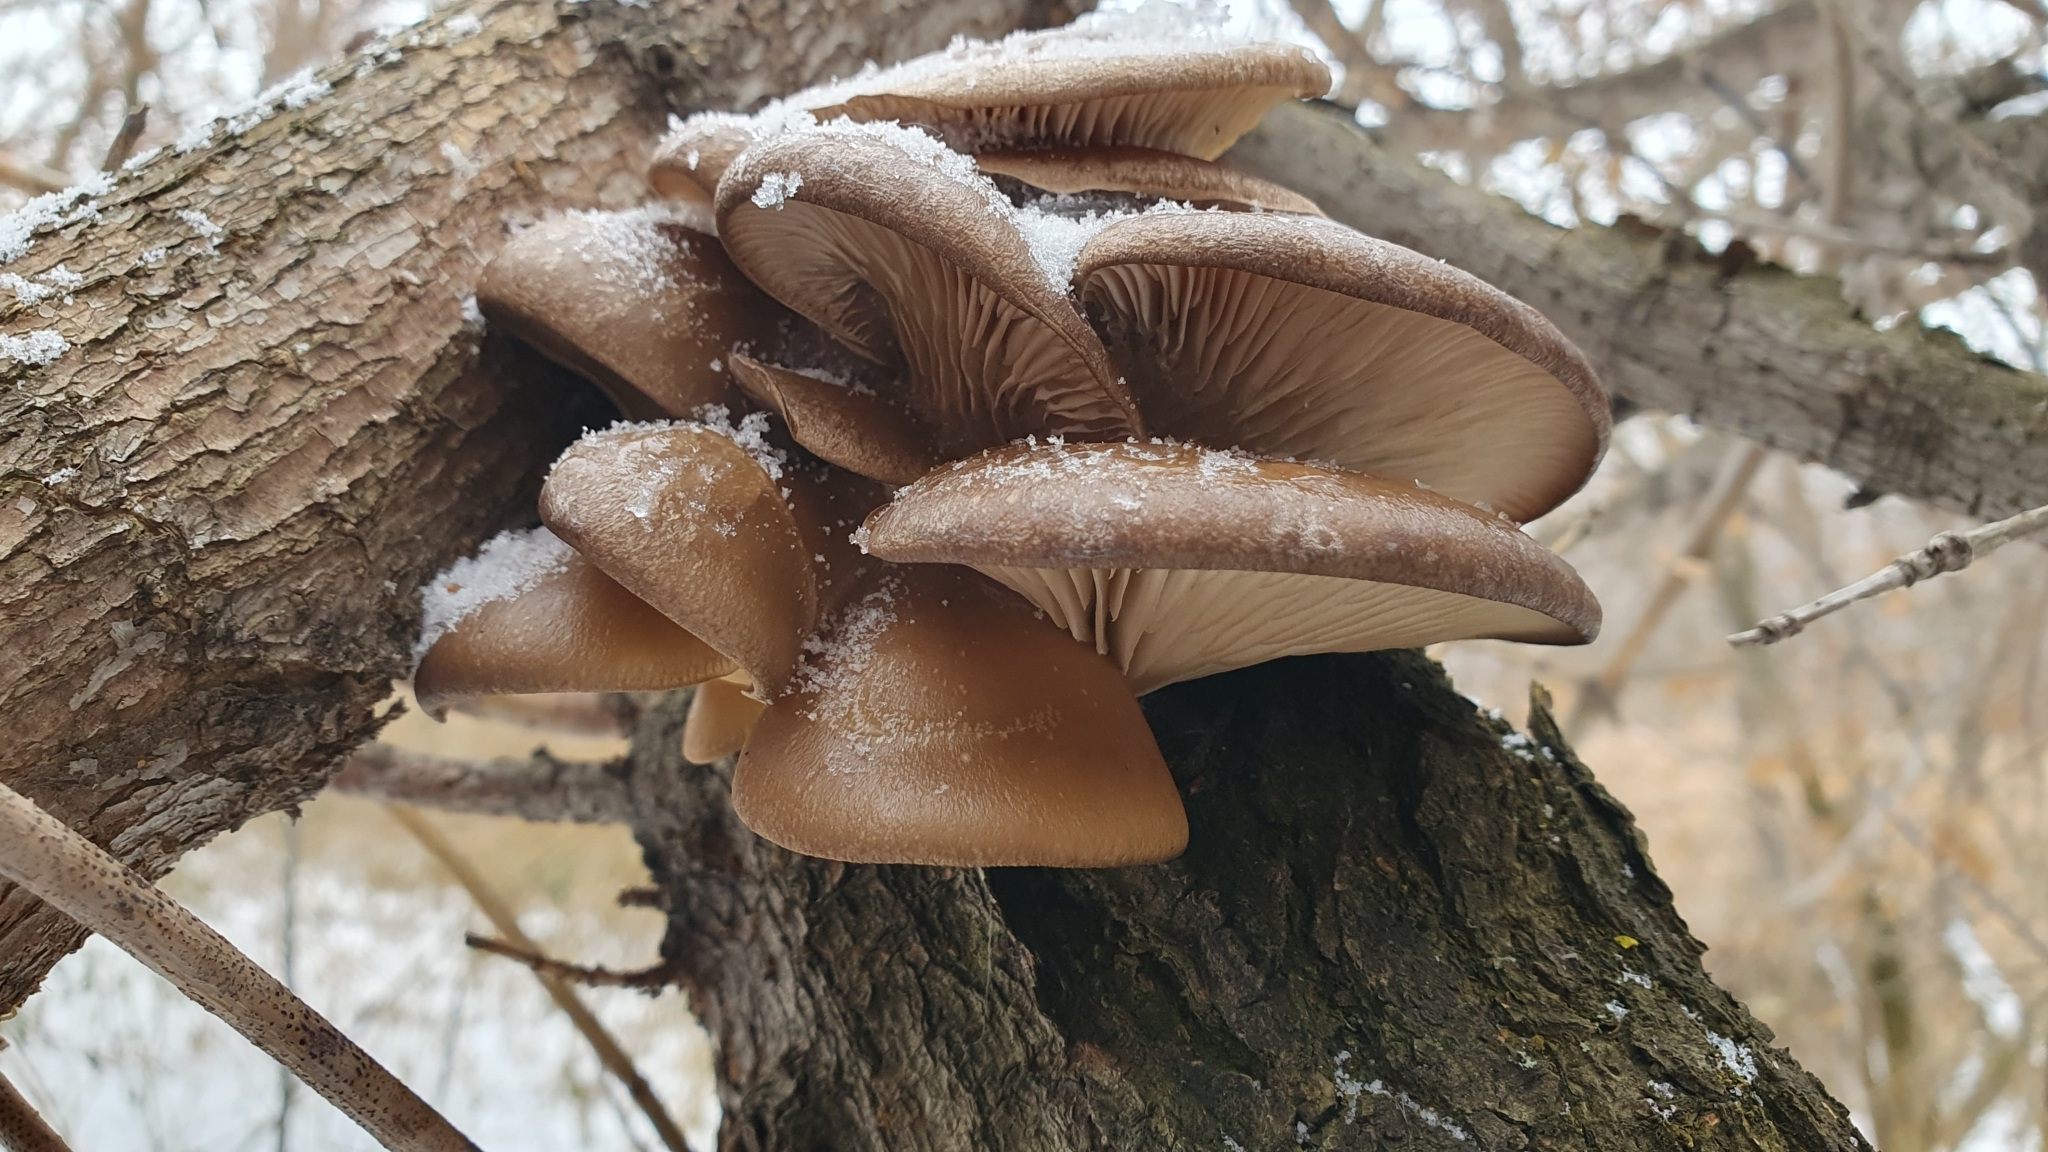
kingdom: Fungi
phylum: Basidiomycota
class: Agaricomycetes
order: Agaricales
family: Pleurotaceae
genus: Pleurotus
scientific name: Pleurotus ostreatus
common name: Oyster mushroom
